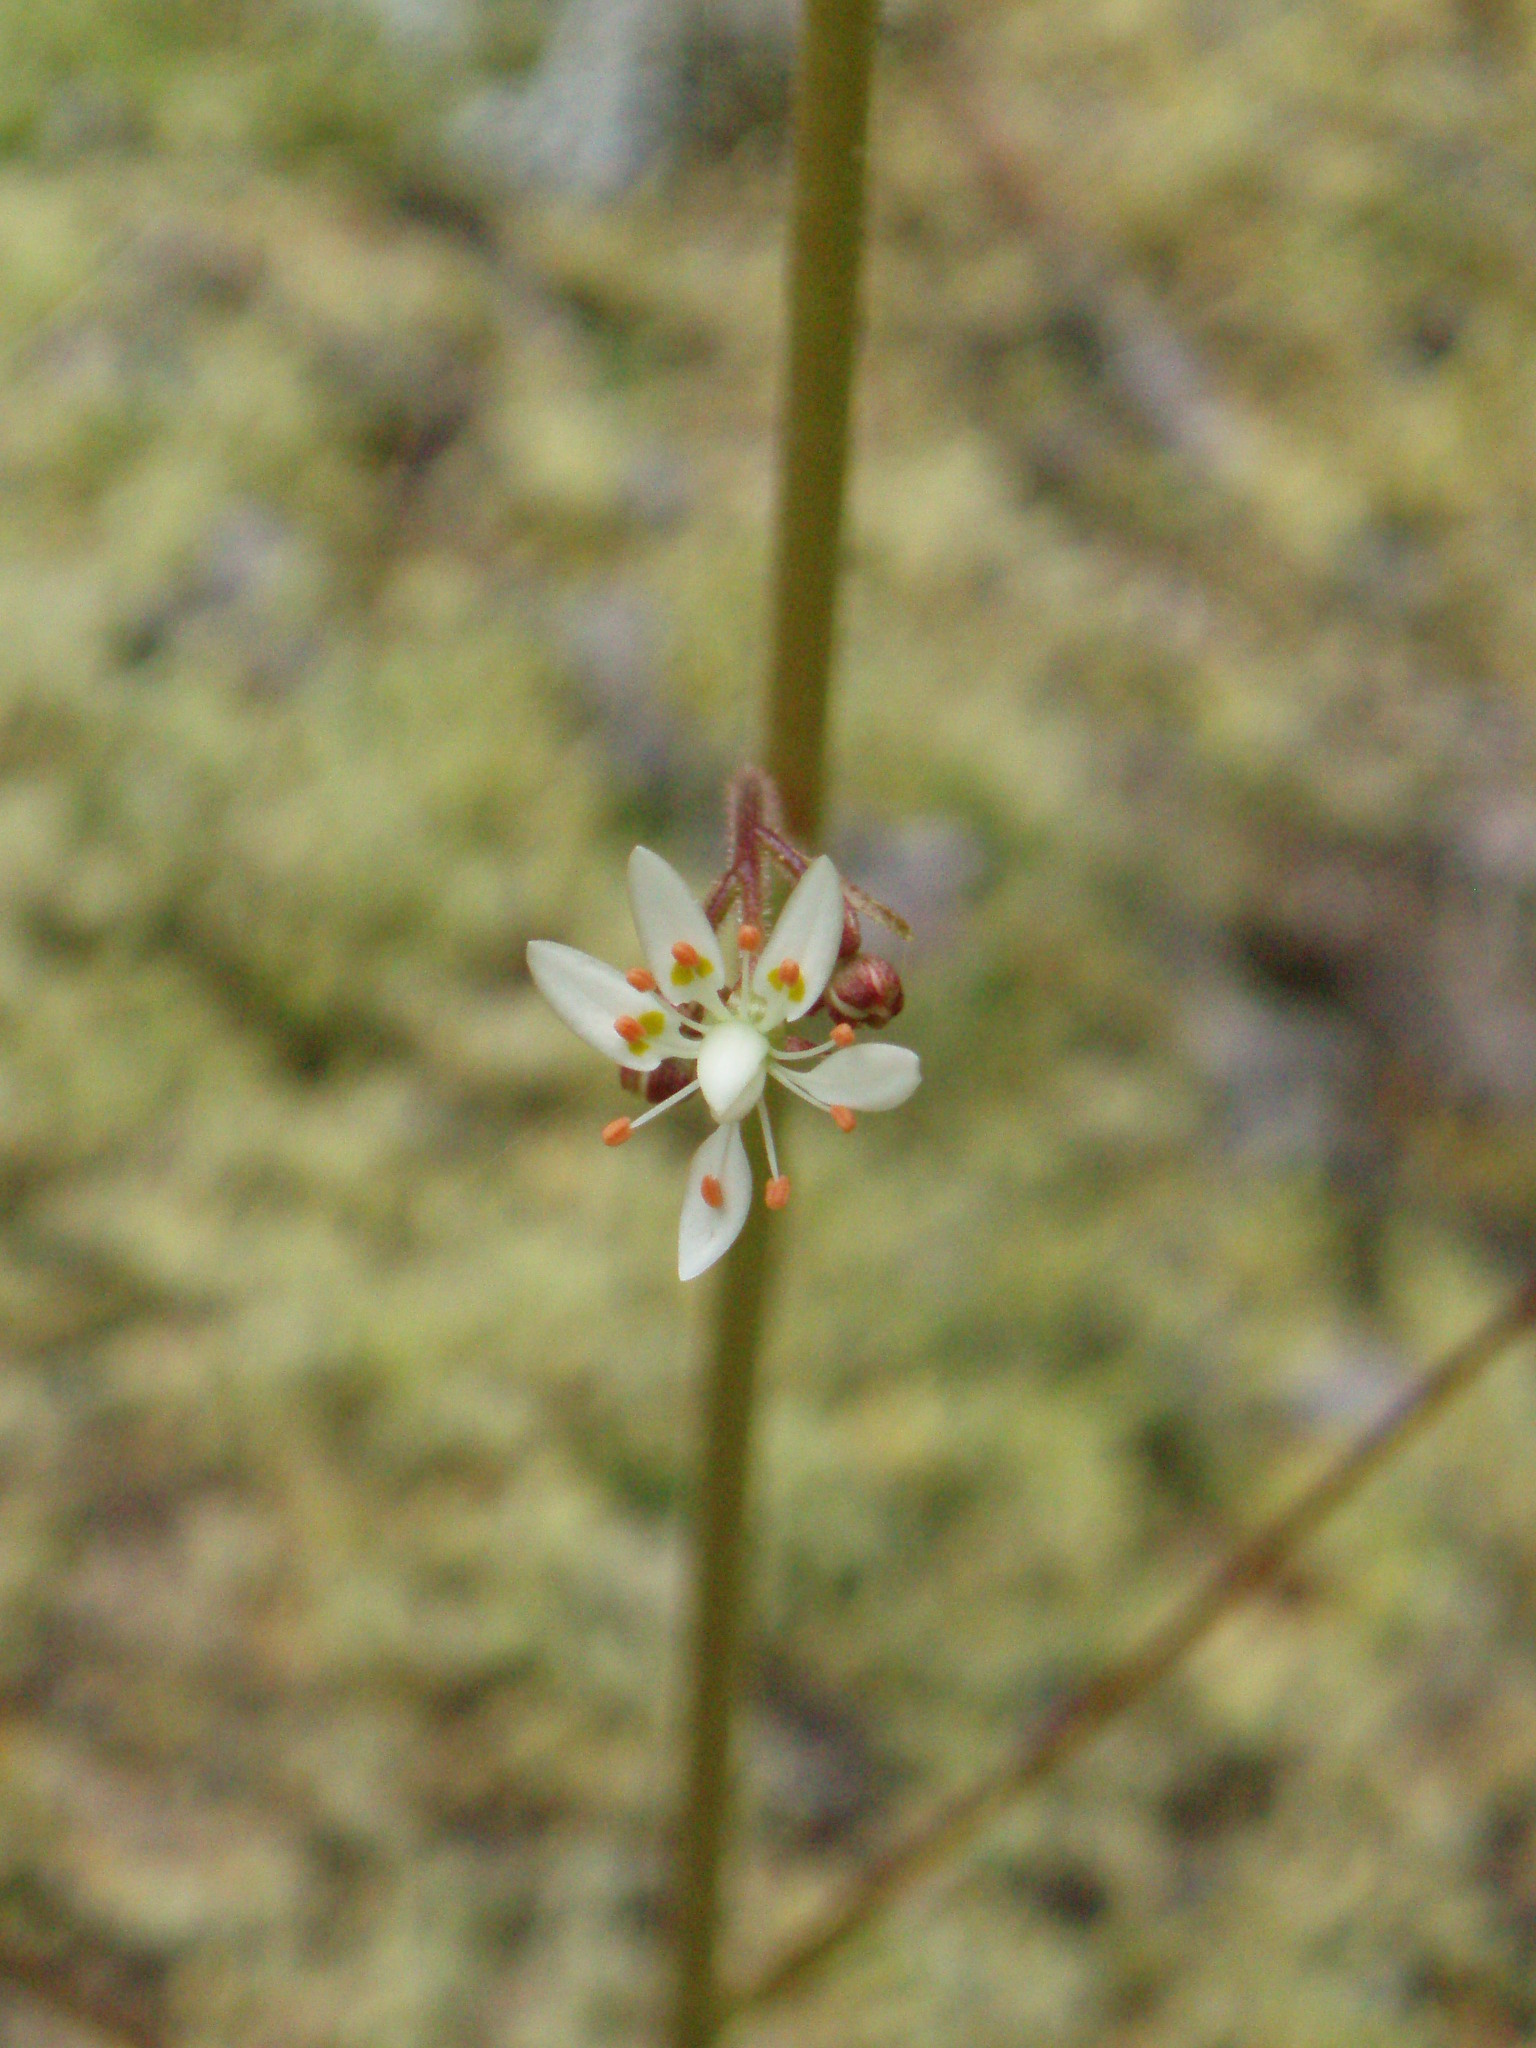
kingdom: Plantae
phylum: Tracheophyta
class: Magnoliopsida
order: Saxifragales
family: Saxifragaceae
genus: Micranthes
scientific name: Micranthes ferruginea
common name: Rusty saxifrage
